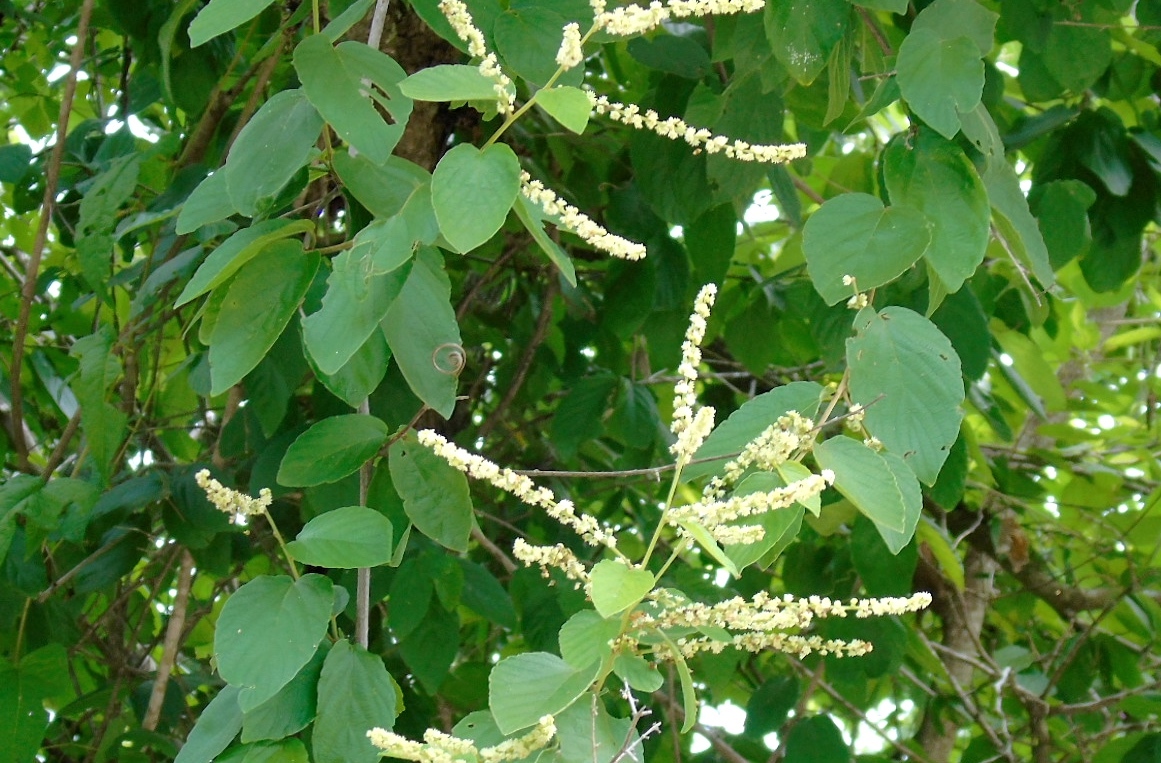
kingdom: Plantae
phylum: Tracheophyta
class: Magnoliopsida
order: Rosales
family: Rhamnaceae
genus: Gouania
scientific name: Gouania rosei
